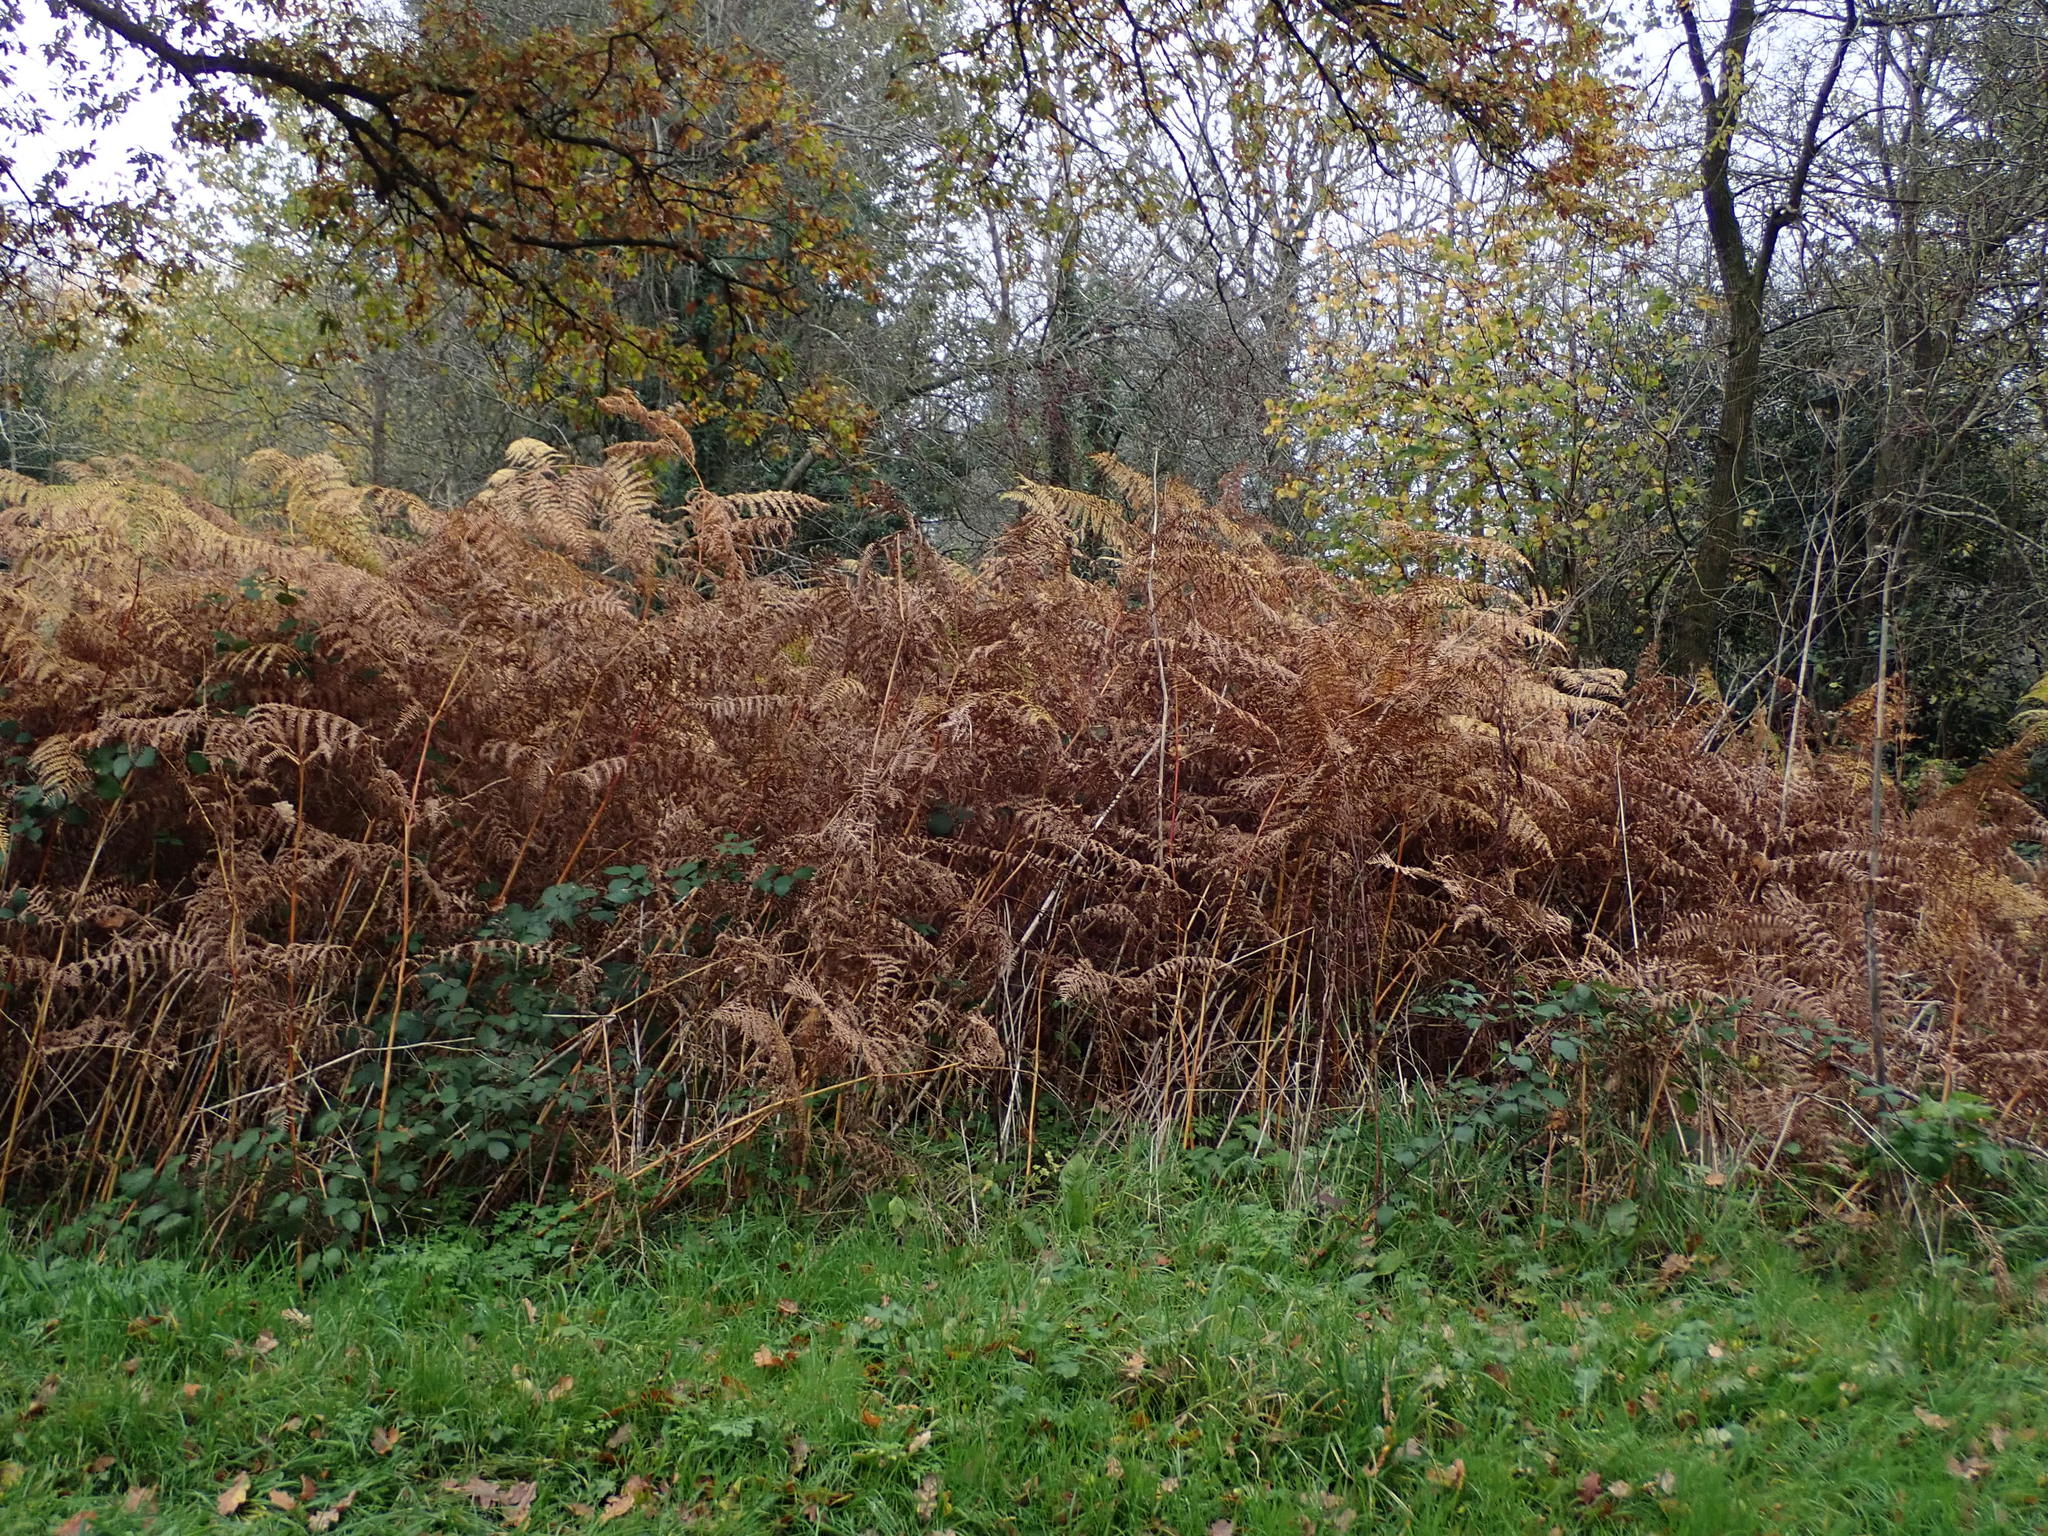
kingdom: Plantae
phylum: Tracheophyta
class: Polypodiopsida
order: Polypodiales
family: Dennstaedtiaceae
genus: Pteridium
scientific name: Pteridium aquilinum
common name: Bracken
